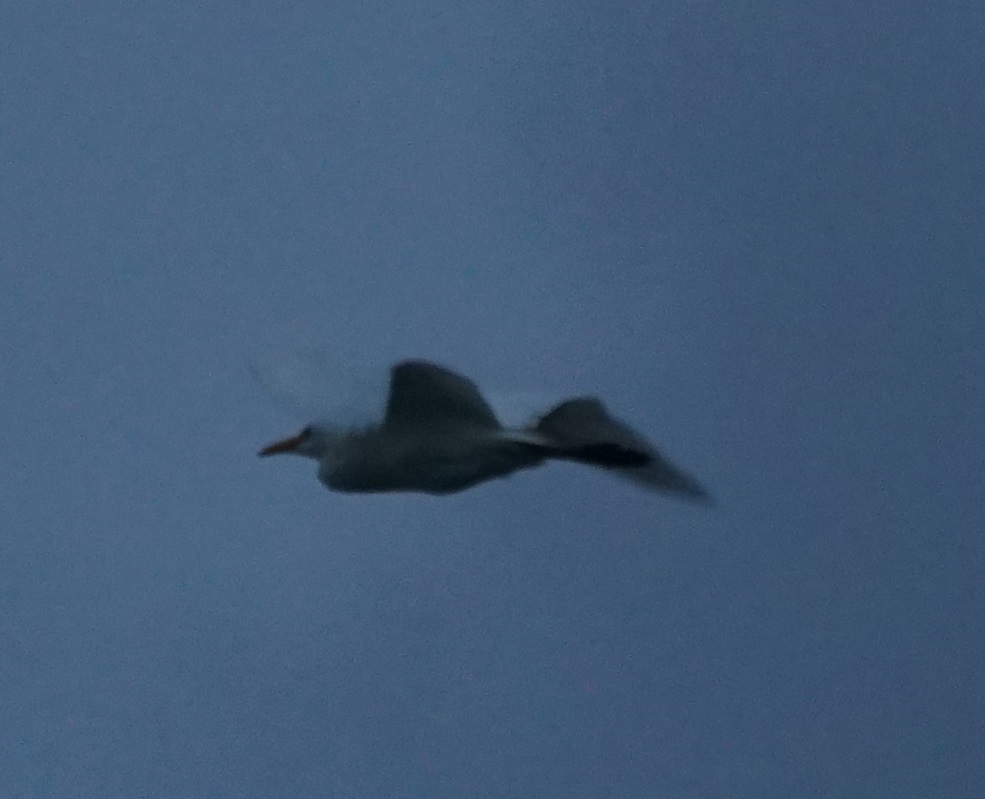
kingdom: Animalia
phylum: Chordata
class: Aves
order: Pelecaniformes
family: Ardeidae
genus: Bubulcus
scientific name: Bubulcus ibis
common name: Cattle egret
